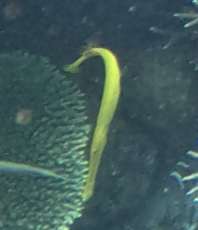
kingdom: Animalia
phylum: Chordata
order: Syngnathiformes
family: Aulostomidae
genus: Aulostomus
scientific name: Aulostomus chinensis
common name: Chinese trumpetfish
